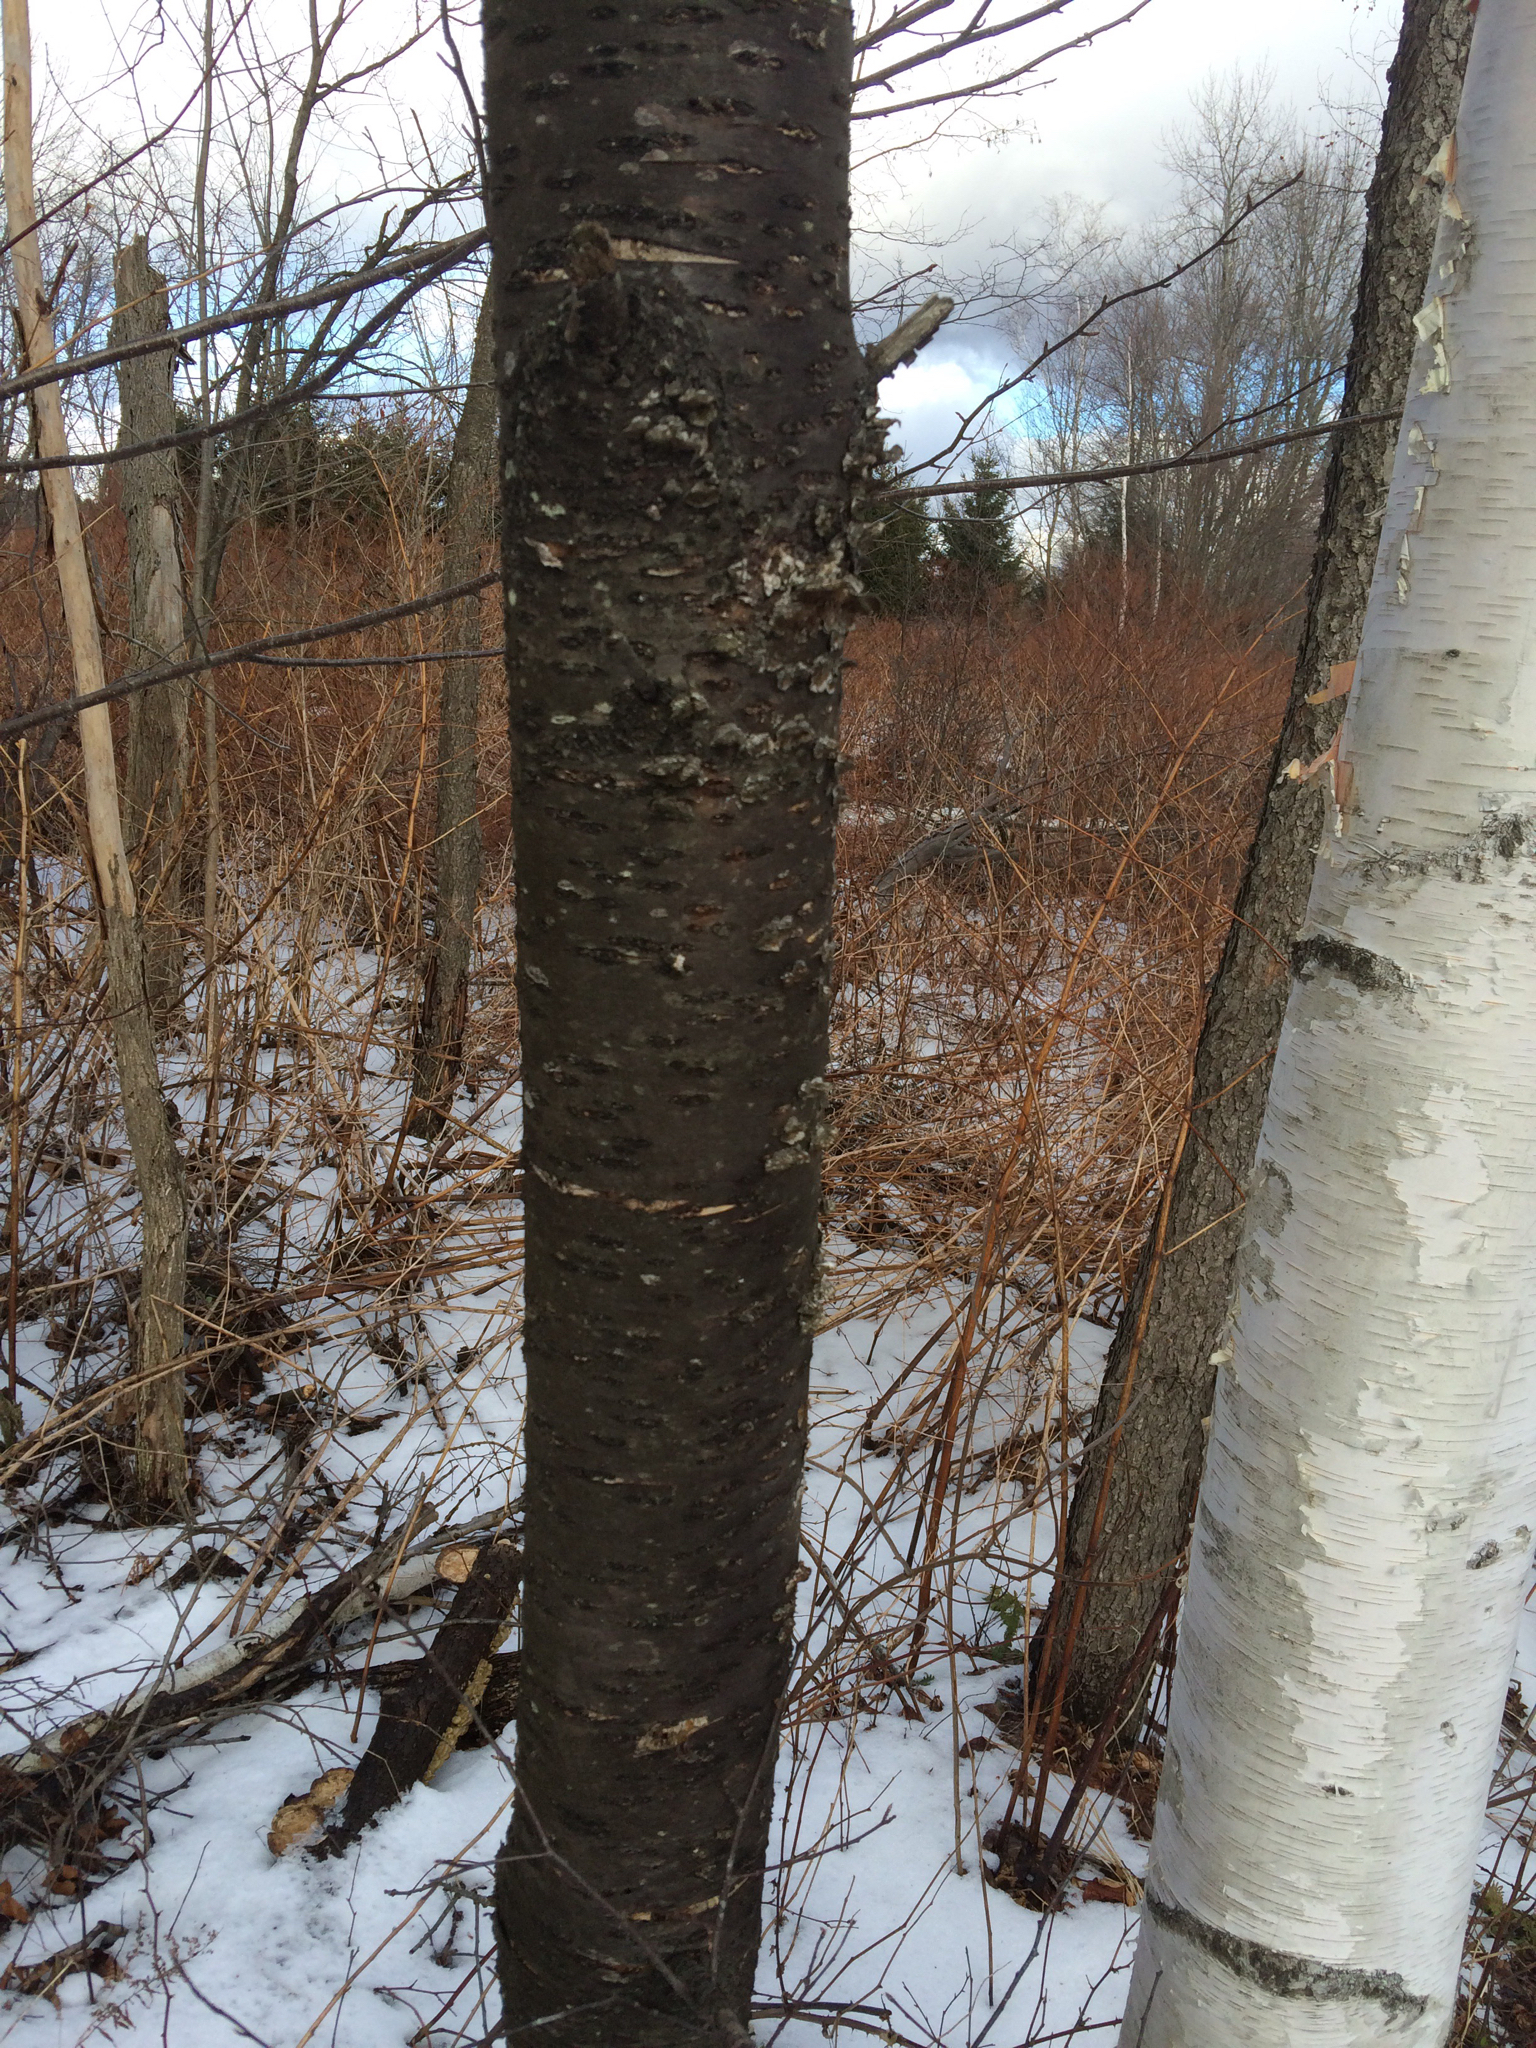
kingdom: Plantae
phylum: Tracheophyta
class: Magnoliopsida
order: Rosales
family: Rosaceae
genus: Prunus
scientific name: Prunus pensylvanica
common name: Pin cherry
